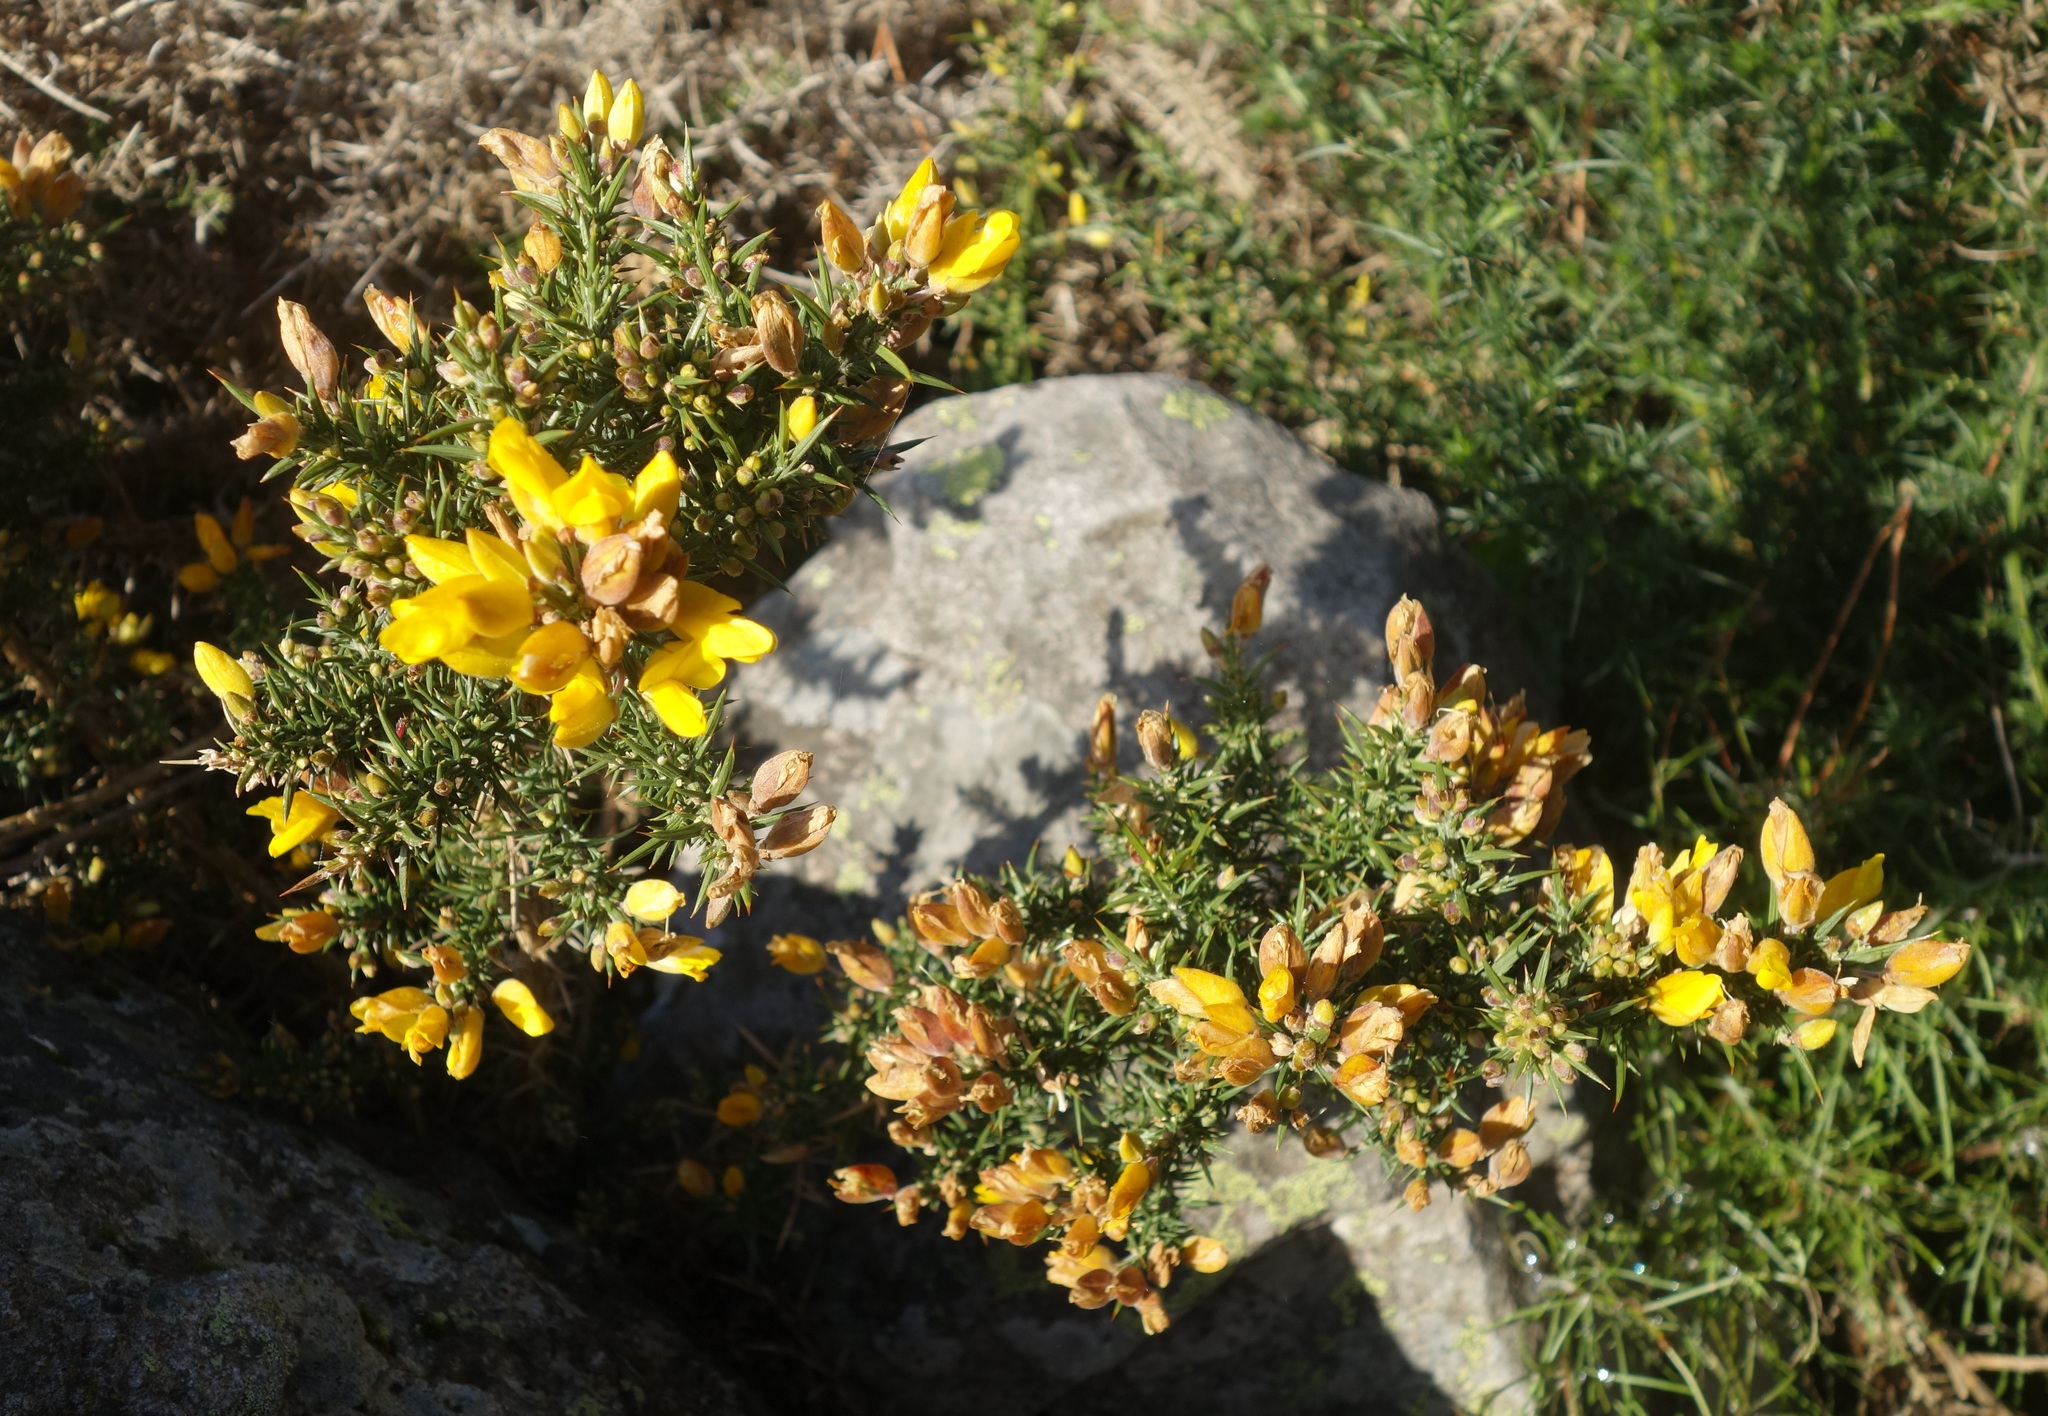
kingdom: Plantae
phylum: Tracheophyta
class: Magnoliopsida
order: Fabales
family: Fabaceae
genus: Ulex
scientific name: Ulex europaeus
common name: Common gorse
